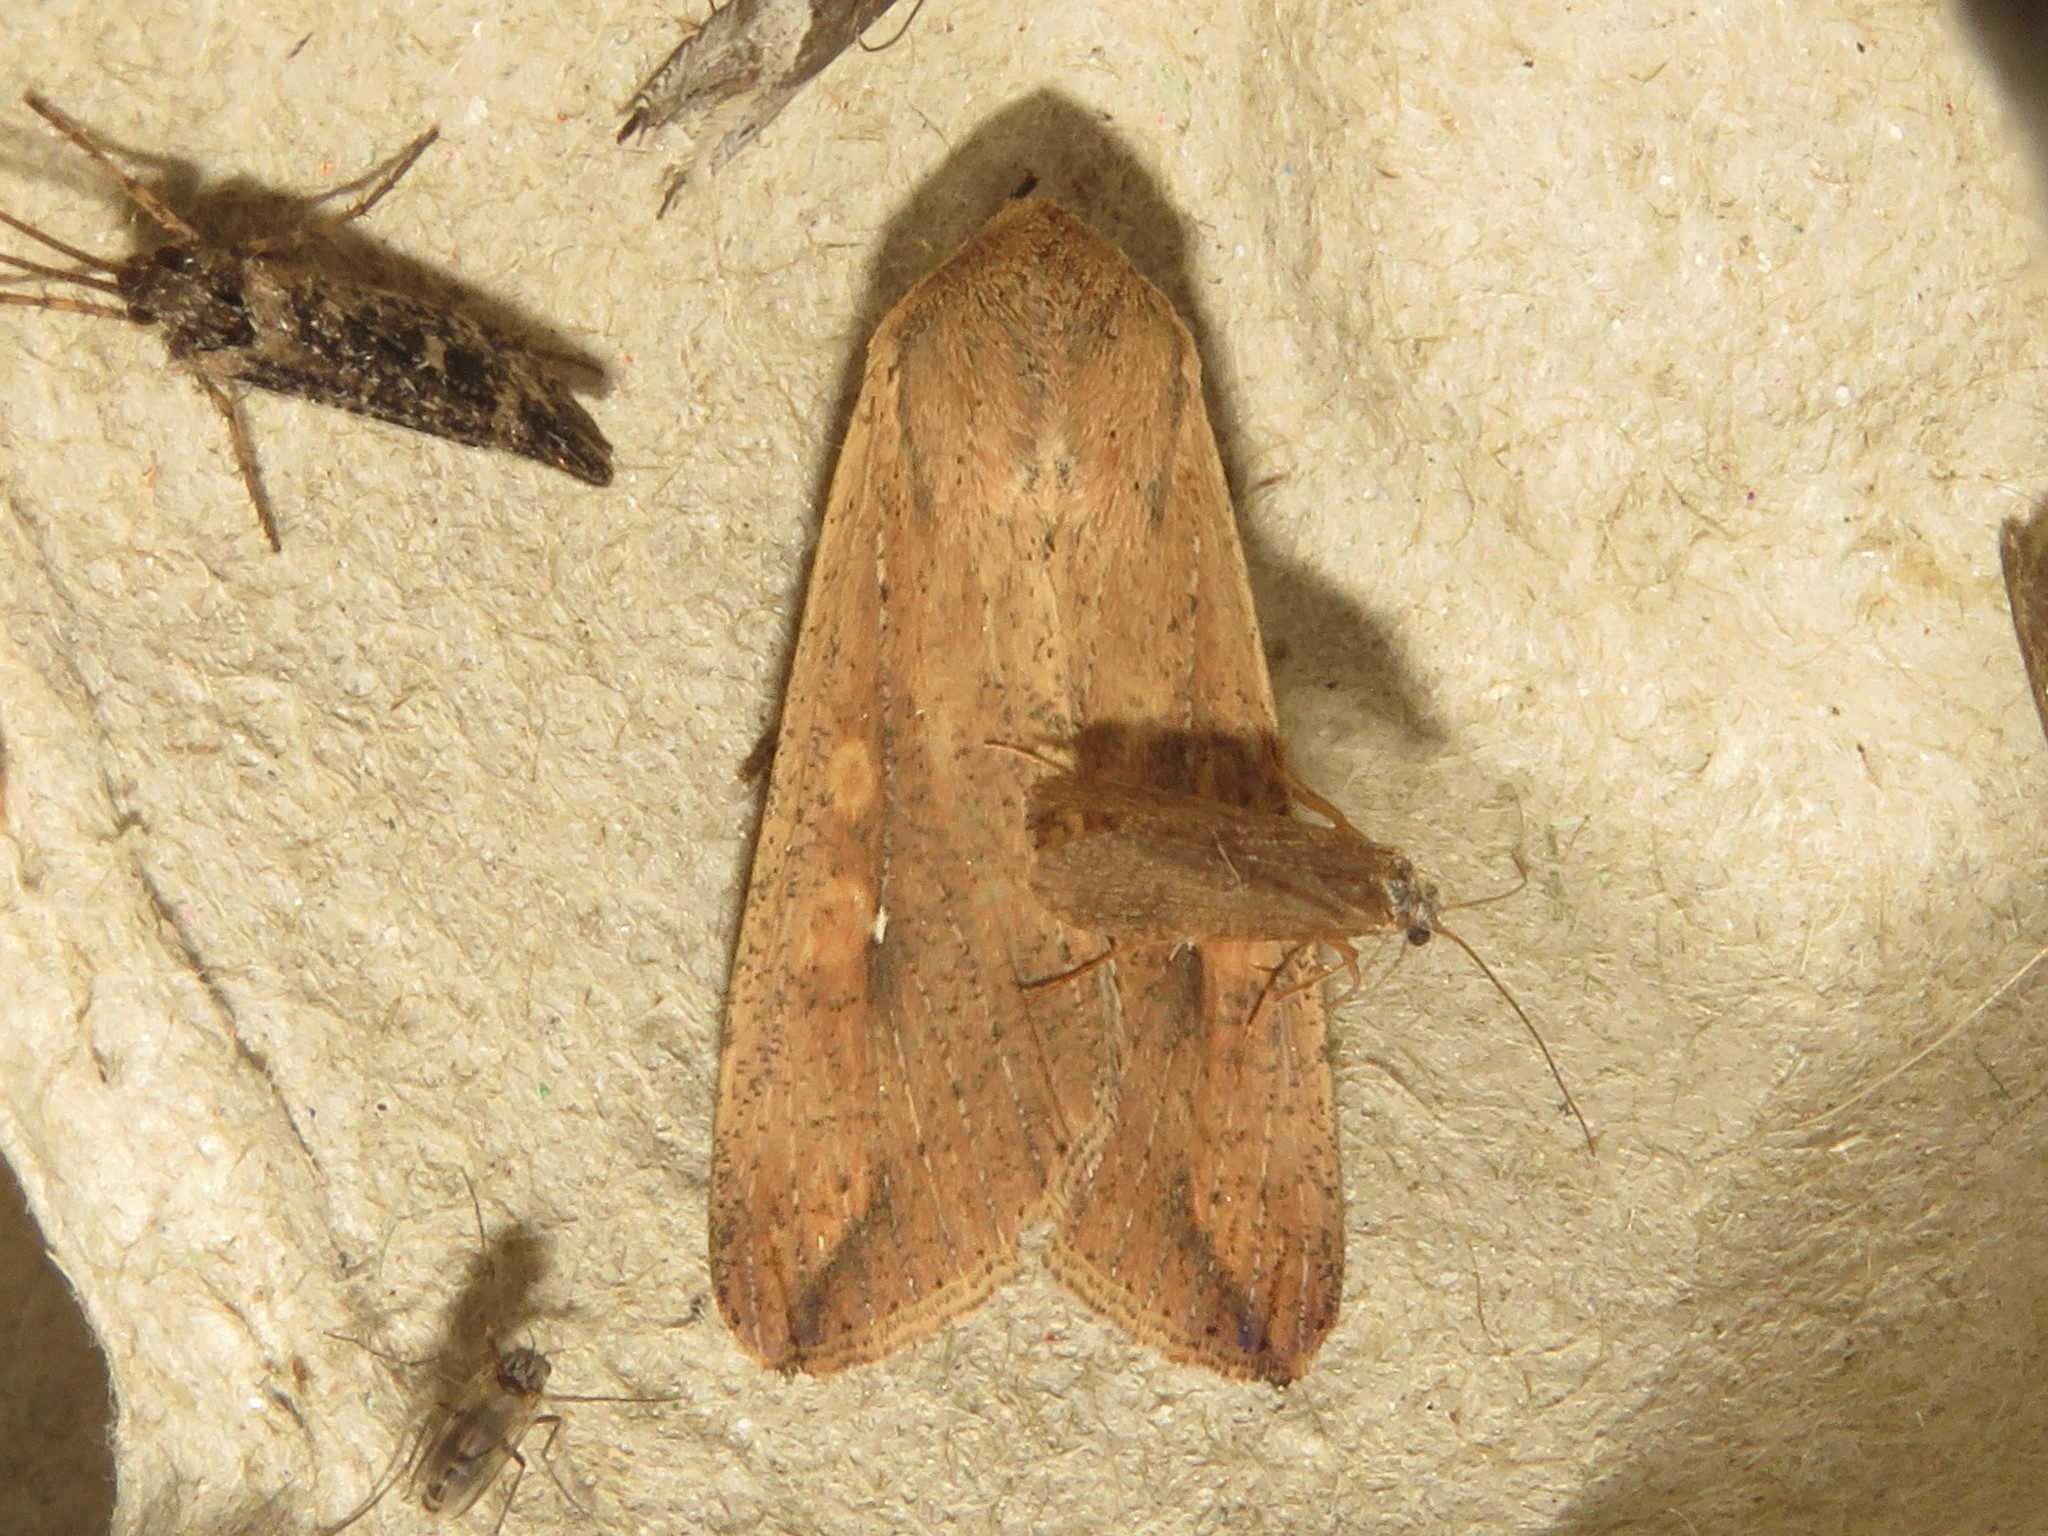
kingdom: Animalia
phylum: Arthropoda
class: Insecta
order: Lepidoptera
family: Noctuidae
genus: Mythimna
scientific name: Mythimna unipuncta
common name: White-speck
